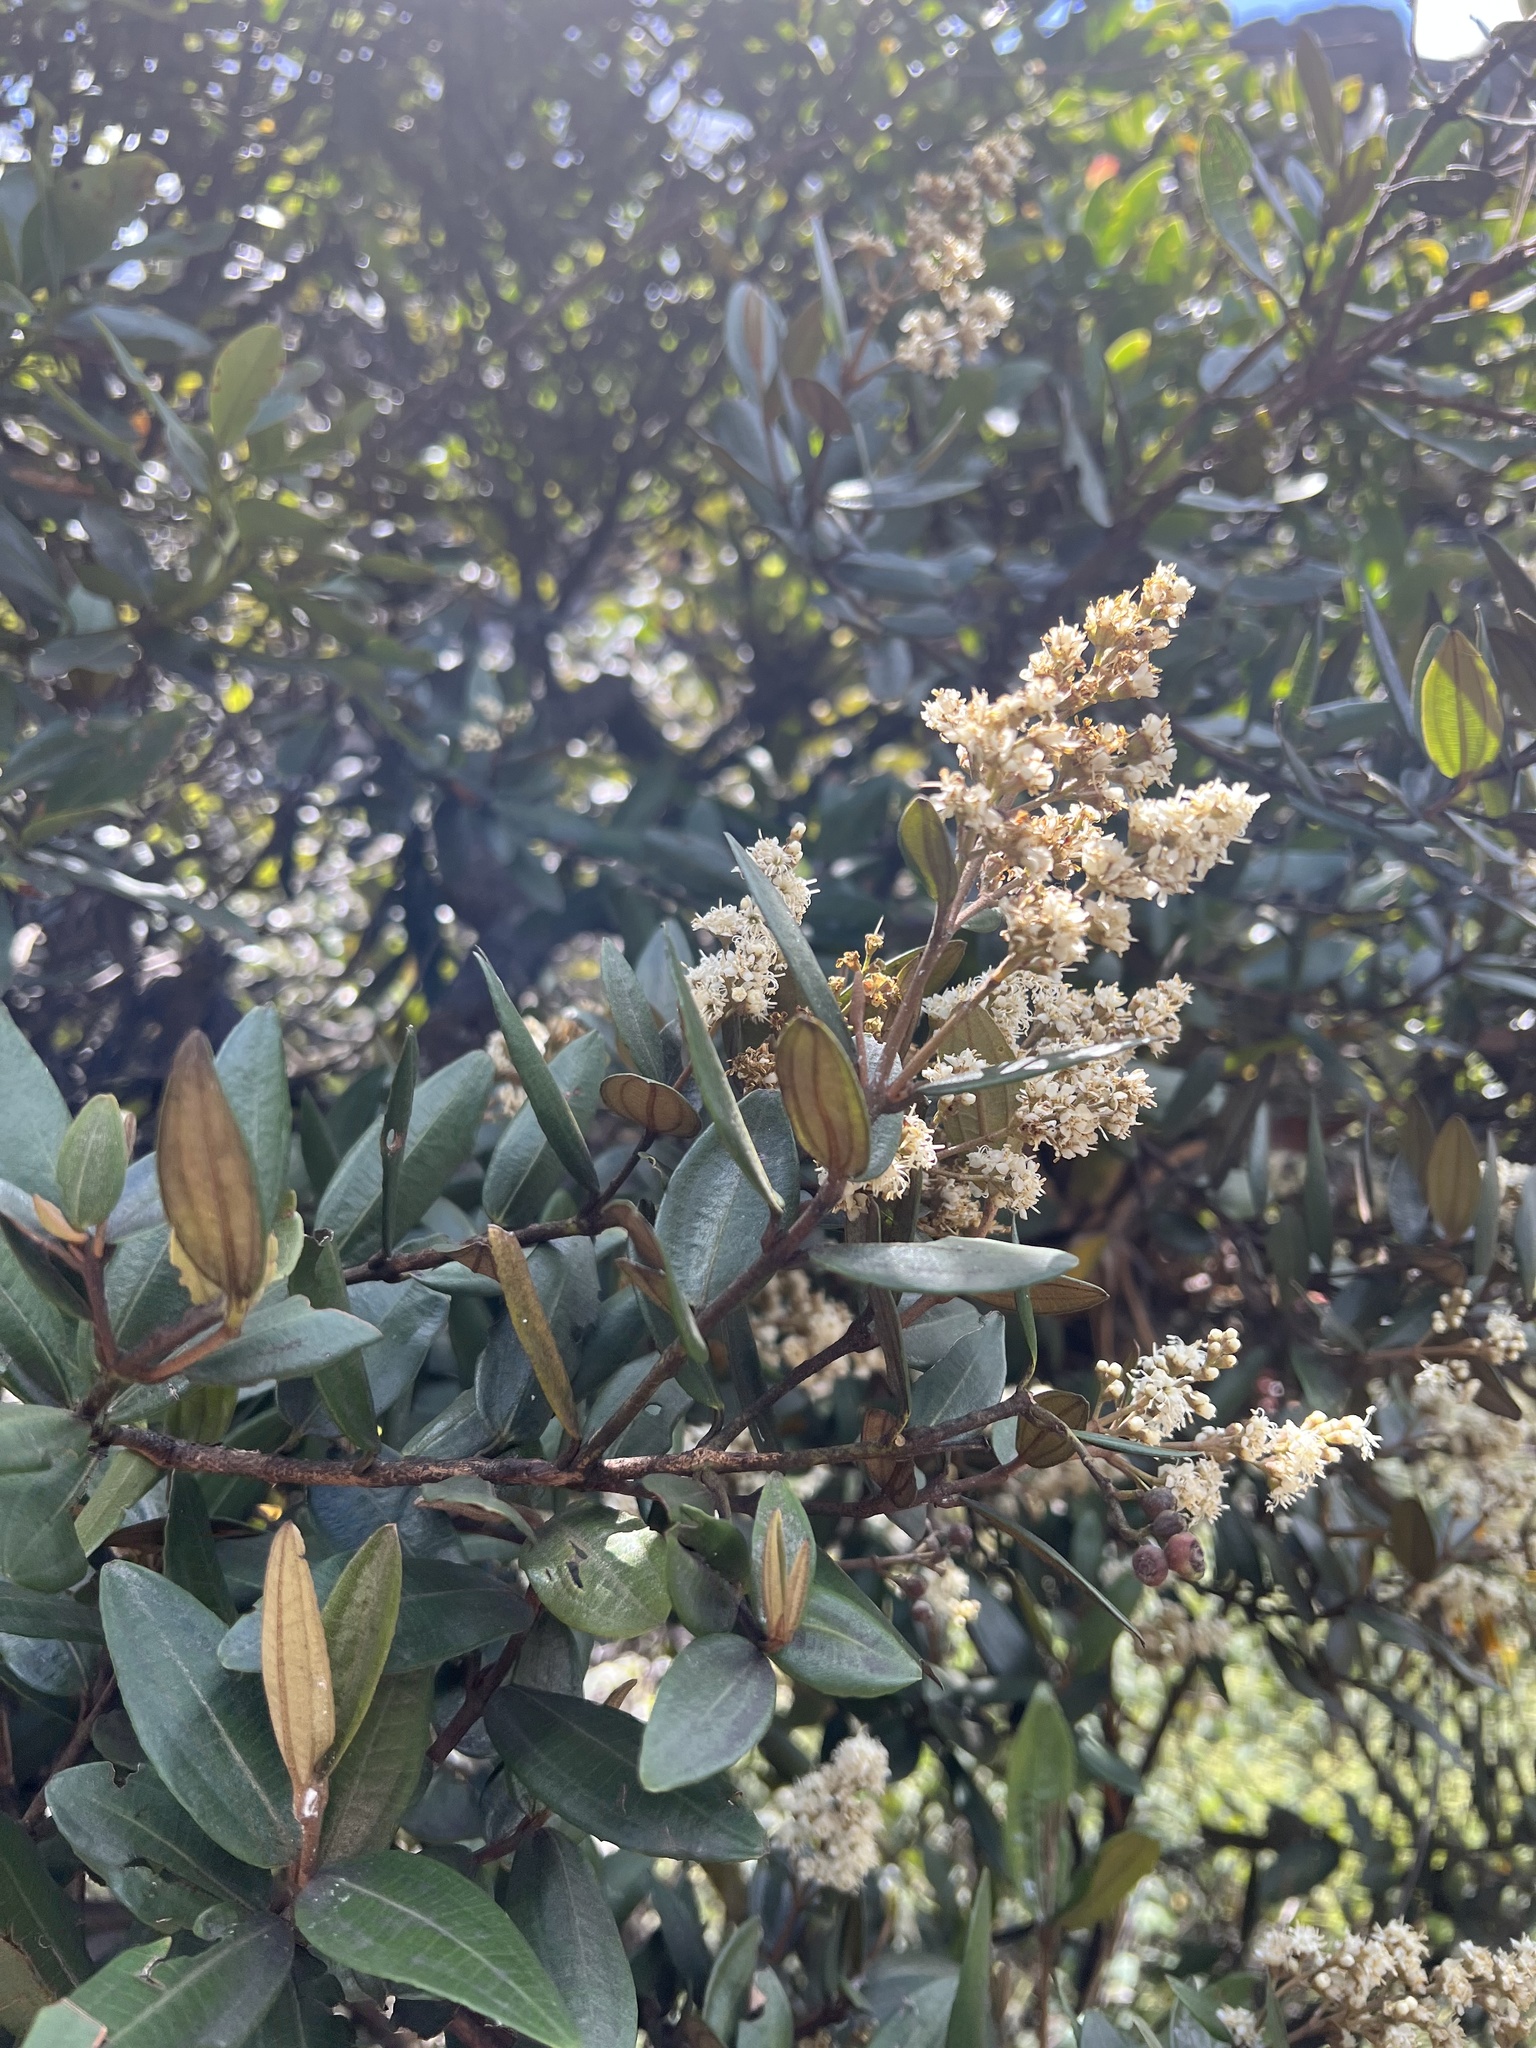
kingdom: Plantae
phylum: Tracheophyta
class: Magnoliopsida
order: Myrtales
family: Melastomataceae
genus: Miconia
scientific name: Miconia squamulosa
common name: Squamulose maya
